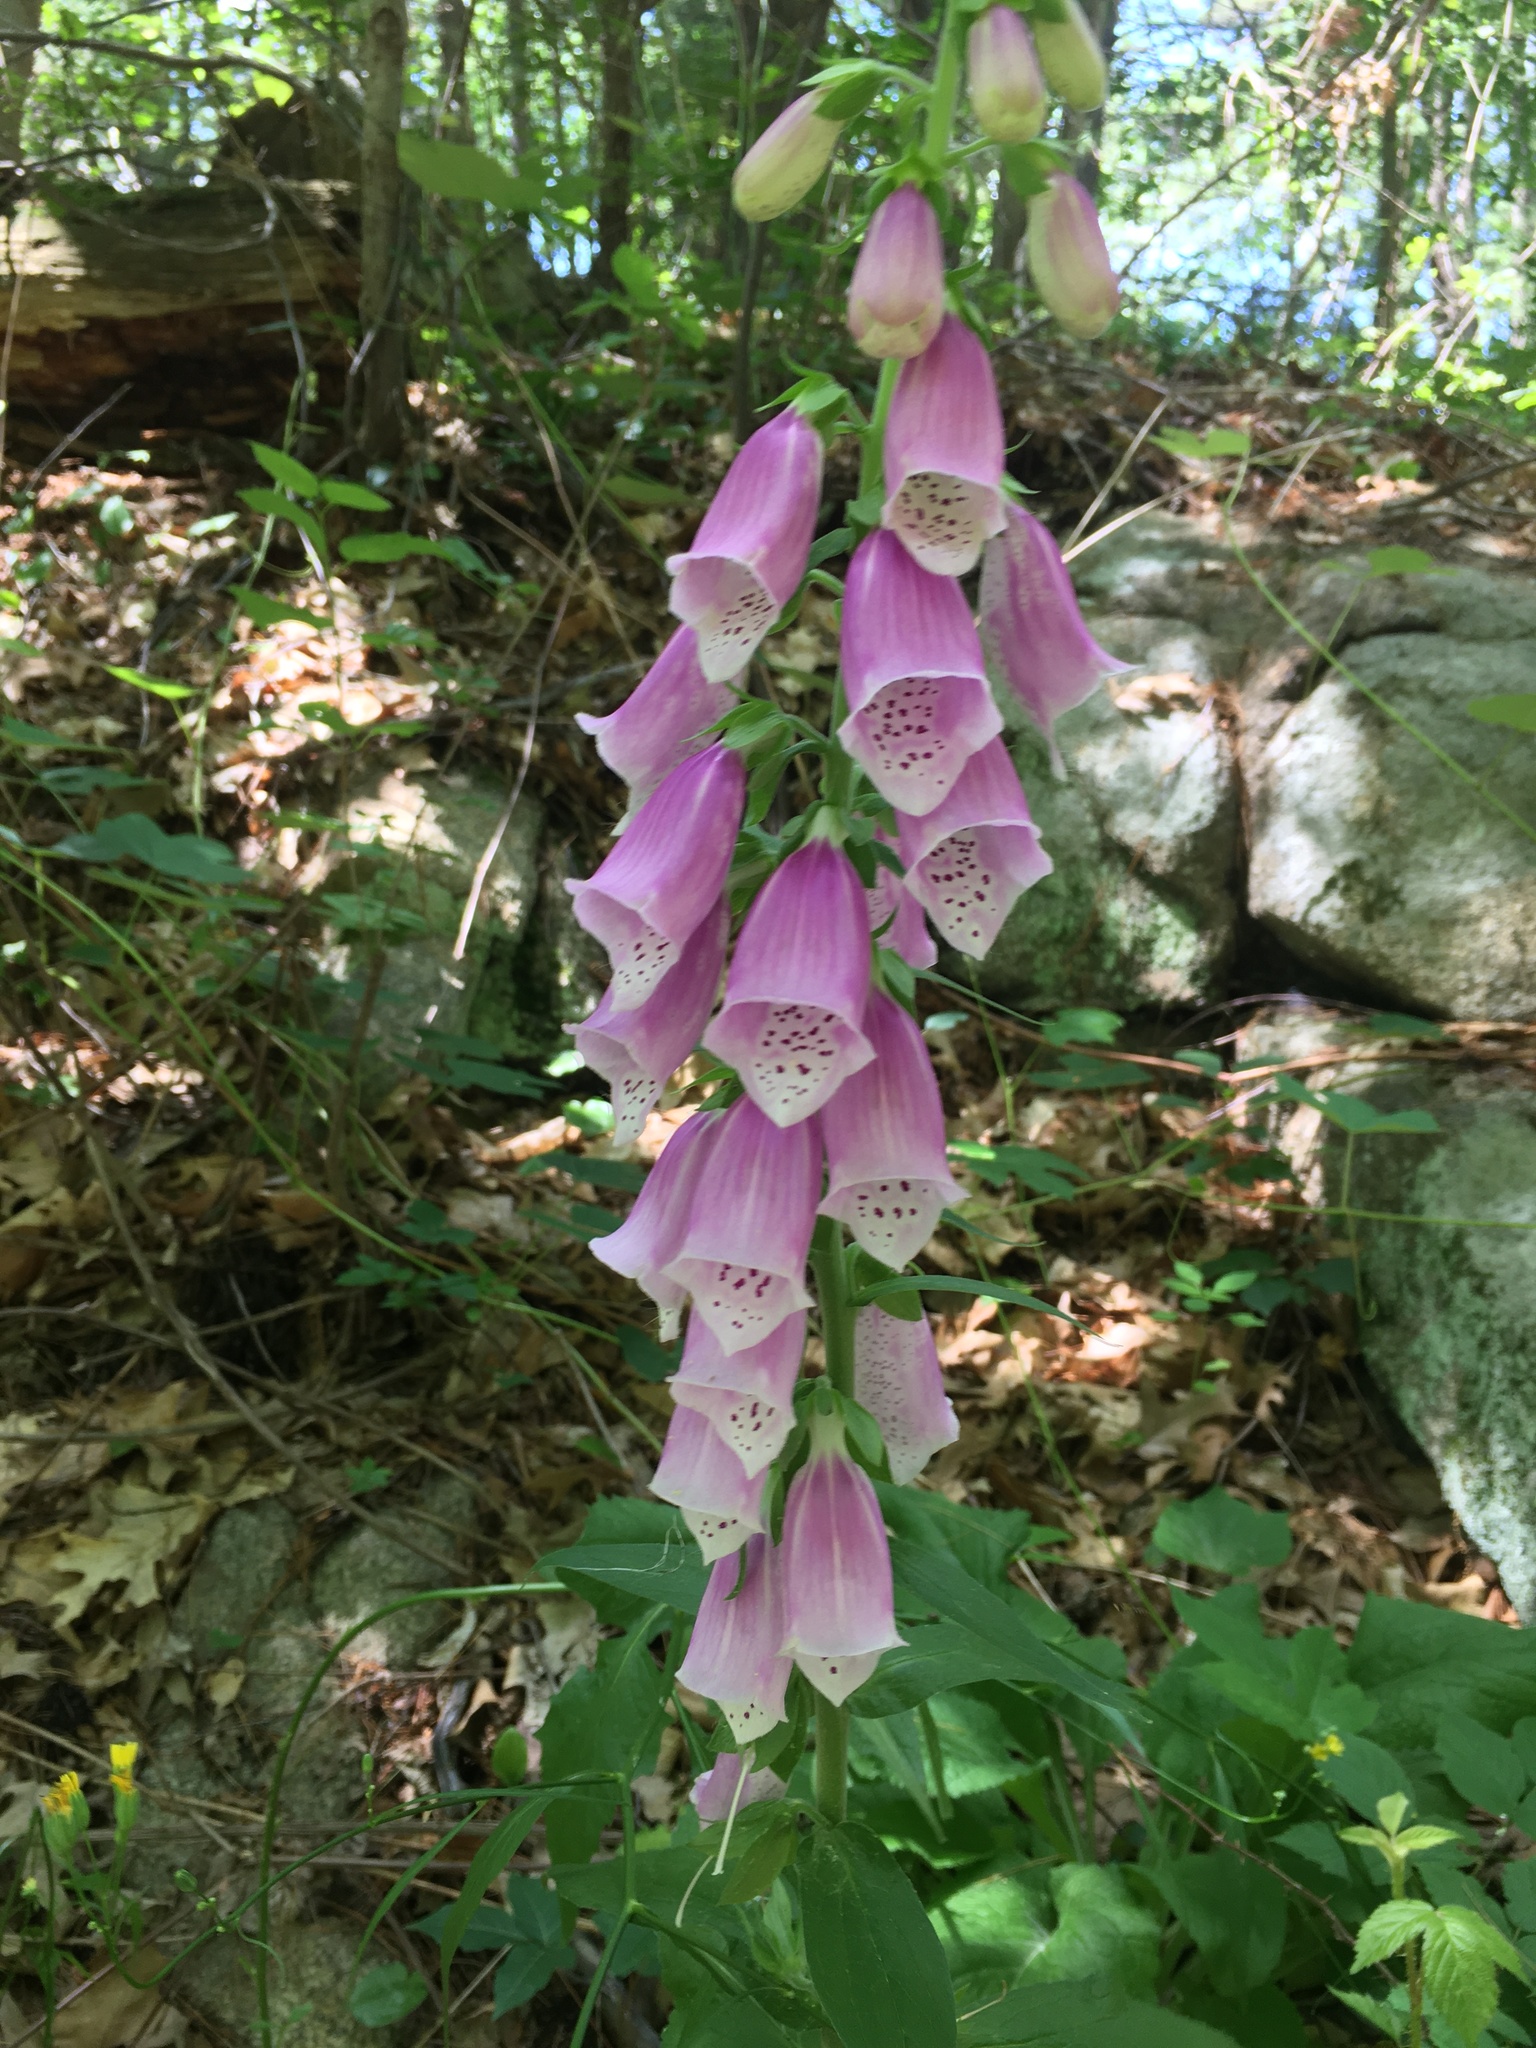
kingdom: Plantae
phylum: Tracheophyta
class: Magnoliopsida
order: Lamiales
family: Plantaginaceae
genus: Digitalis
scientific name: Digitalis purpurea
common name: Foxglove
